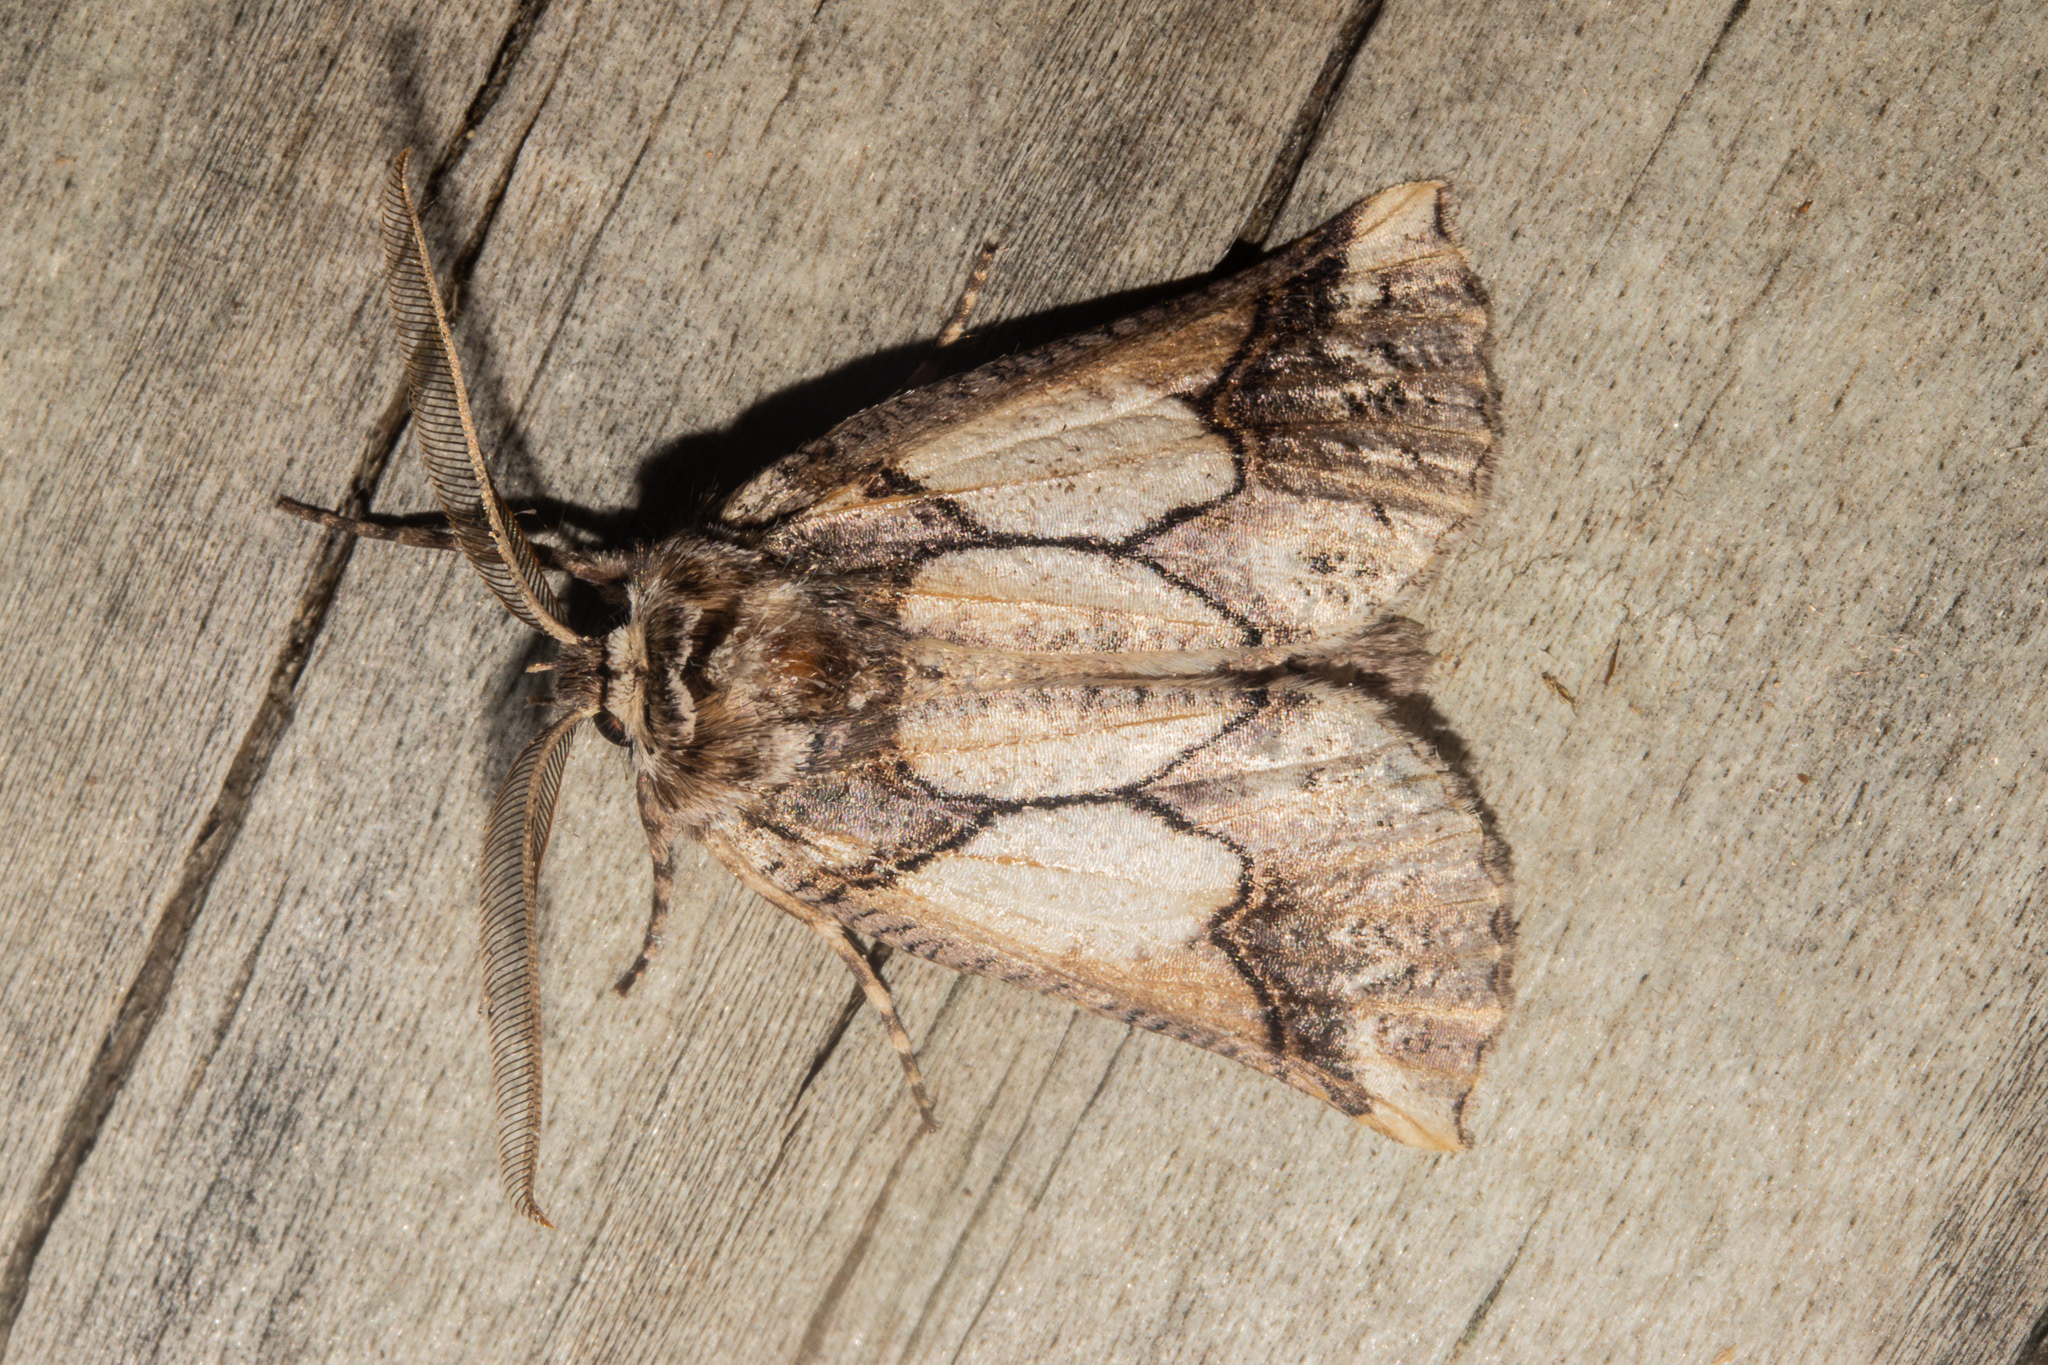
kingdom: Animalia
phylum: Arthropoda
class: Insecta
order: Lepidoptera
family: Geometridae
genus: Declana
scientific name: Declana
